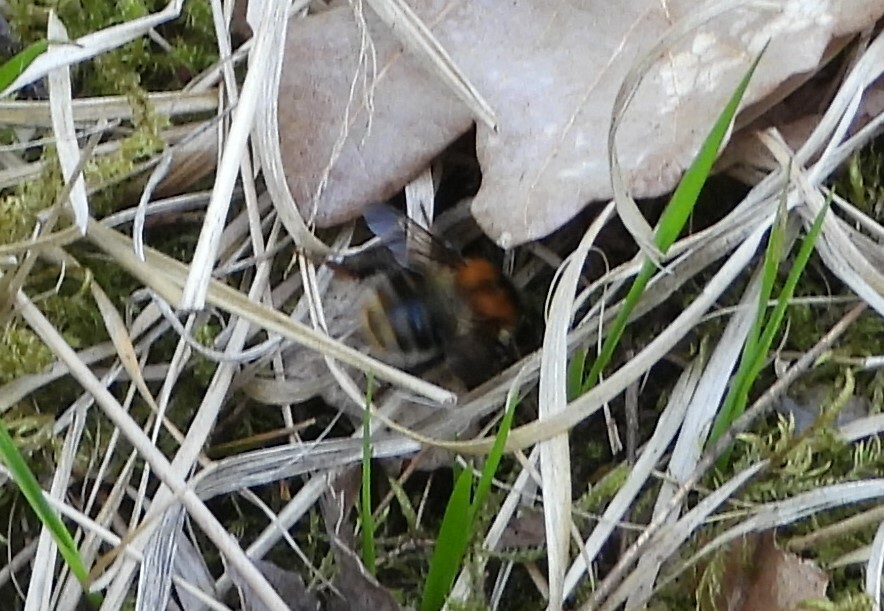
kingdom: Animalia
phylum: Arthropoda
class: Insecta
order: Hymenoptera
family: Apidae
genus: Bombus
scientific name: Bombus pascuorum
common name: Common carder bee
